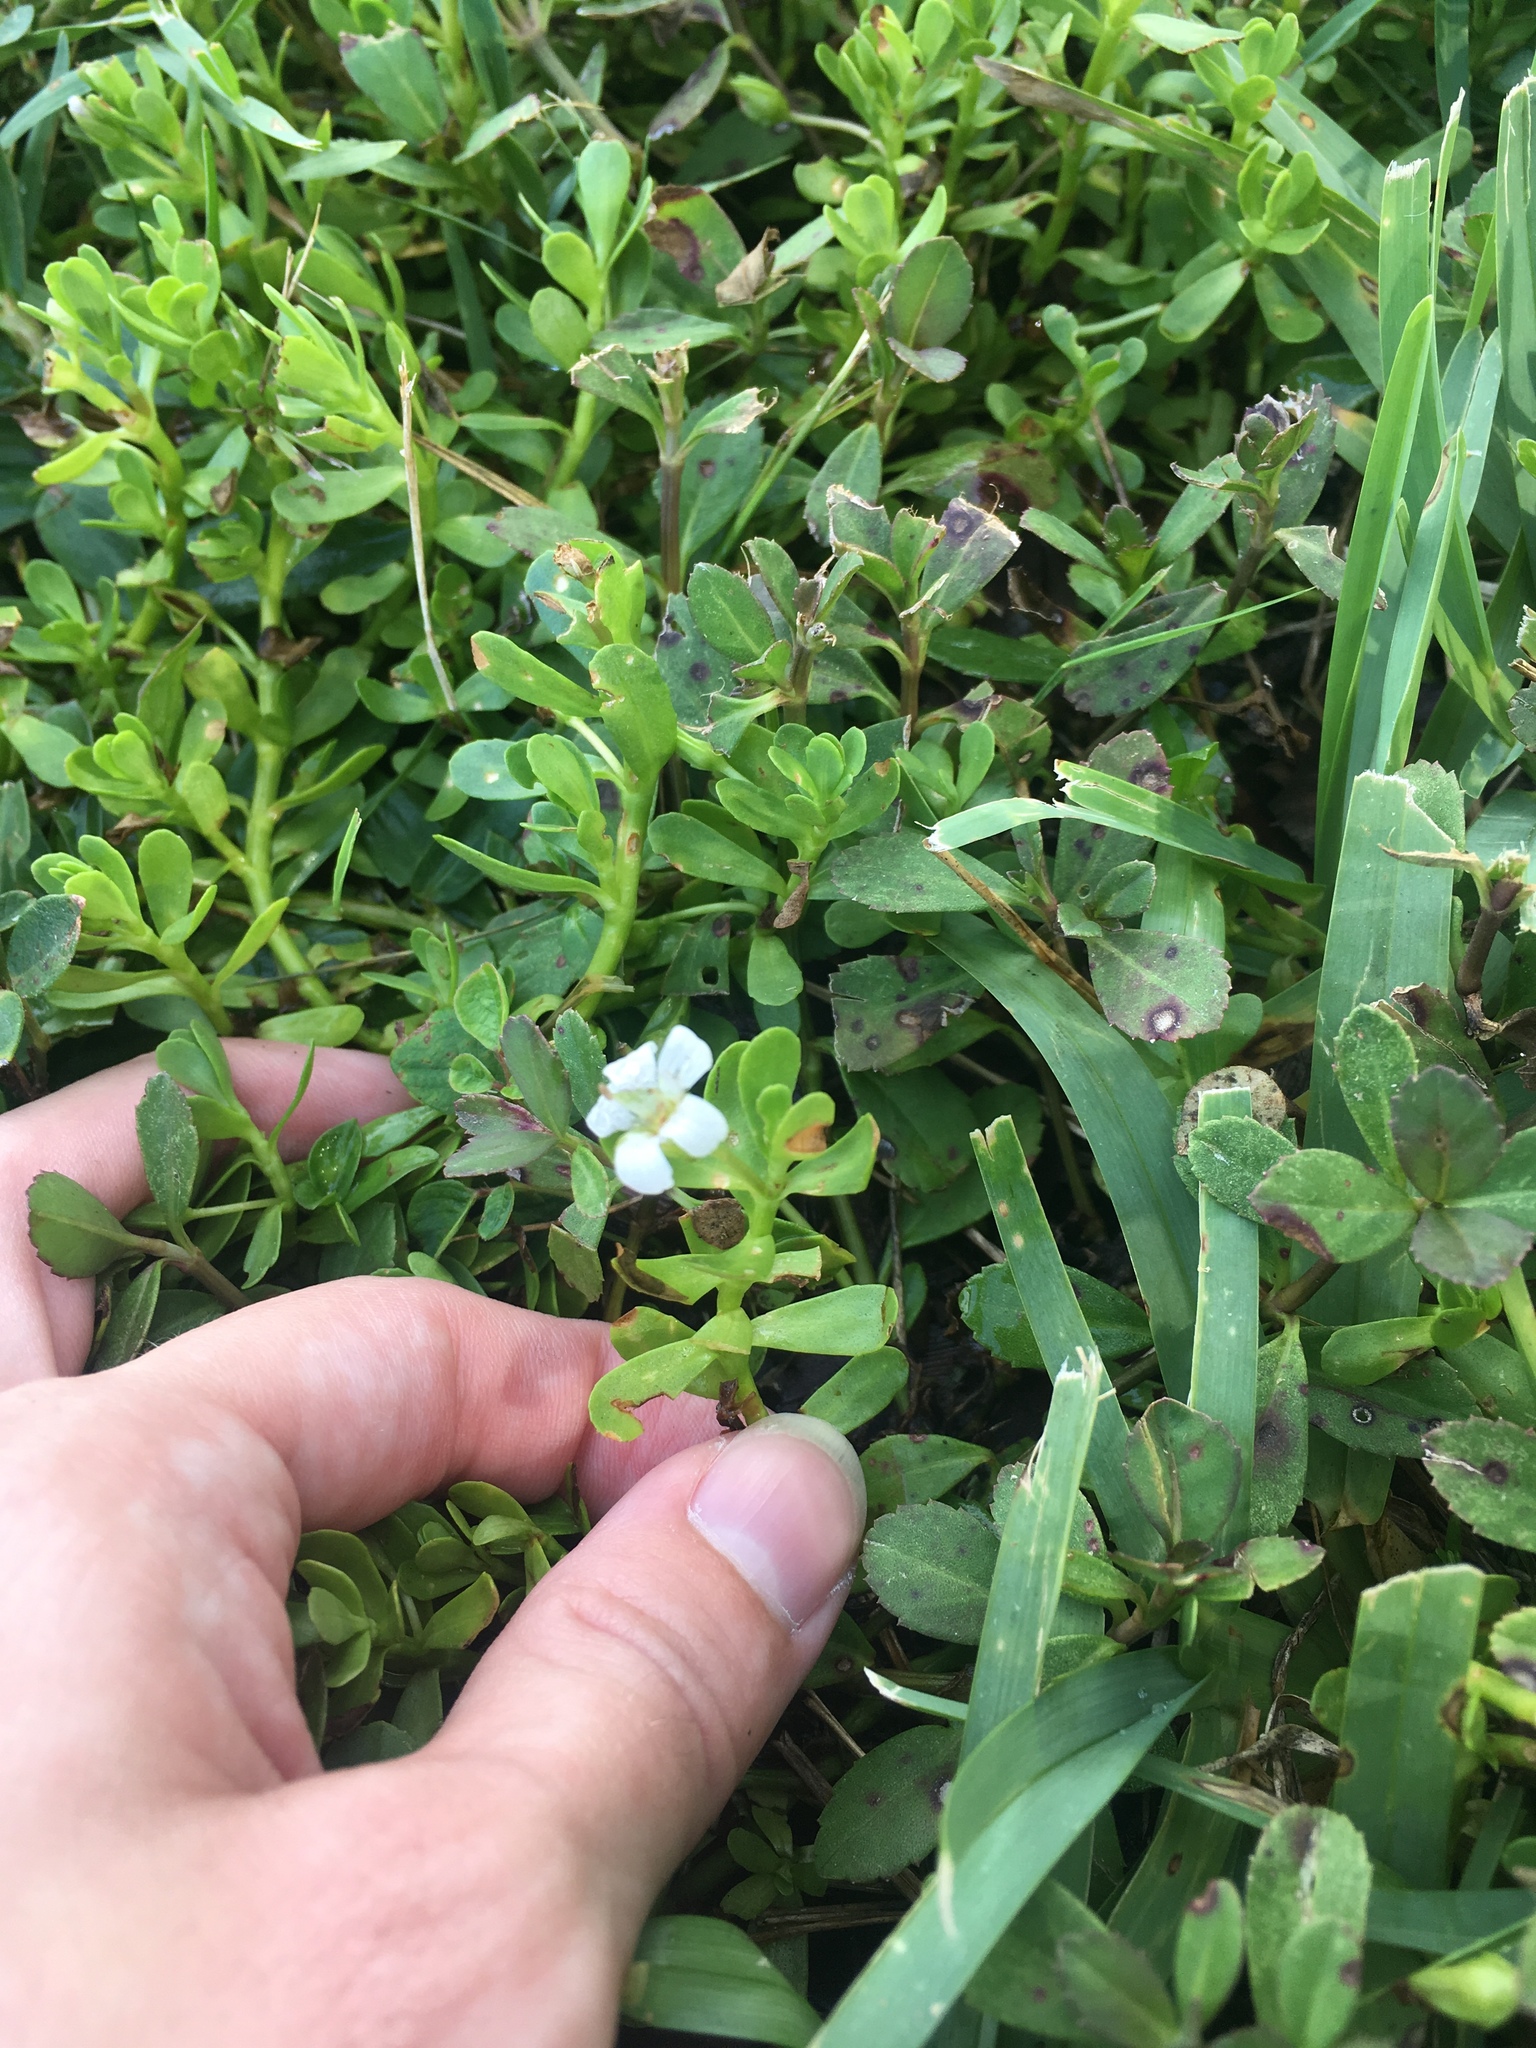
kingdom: Plantae
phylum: Tracheophyta
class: Magnoliopsida
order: Lamiales
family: Plantaginaceae
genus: Bacopa
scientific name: Bacopa monnieri
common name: Indian-pennywort
